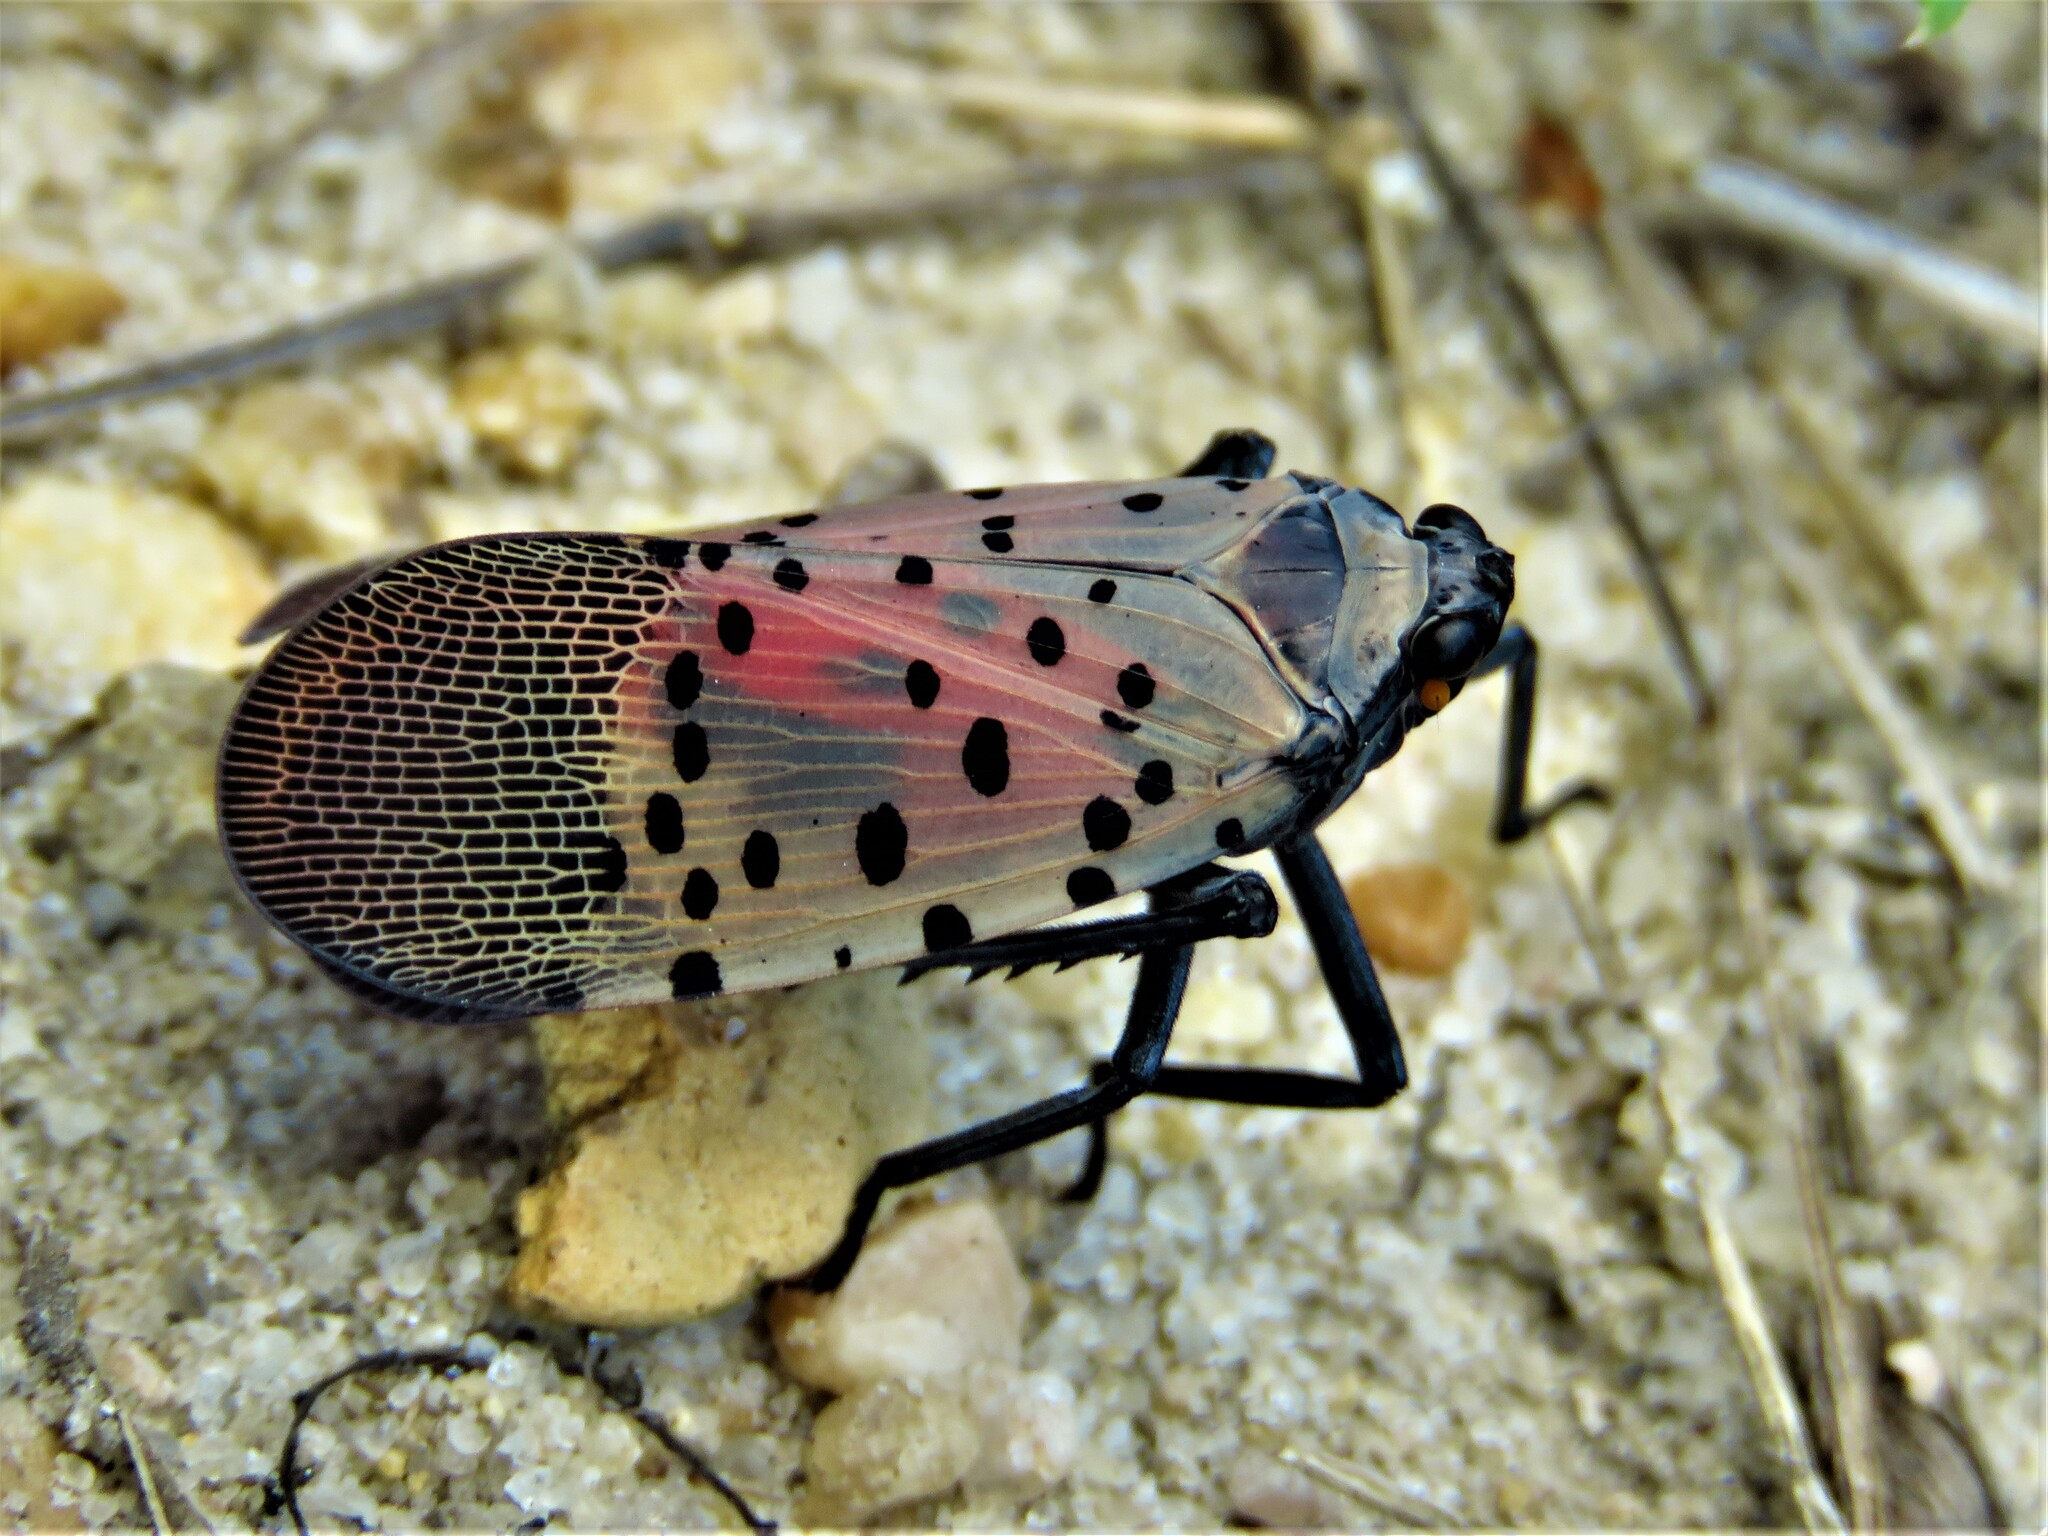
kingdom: Animalia
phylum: Arthropoda
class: Insecta
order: Hemiptera
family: Fulgoridae
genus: Lycorma
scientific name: Lycorma delicatula
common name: Spotted lanternfly
